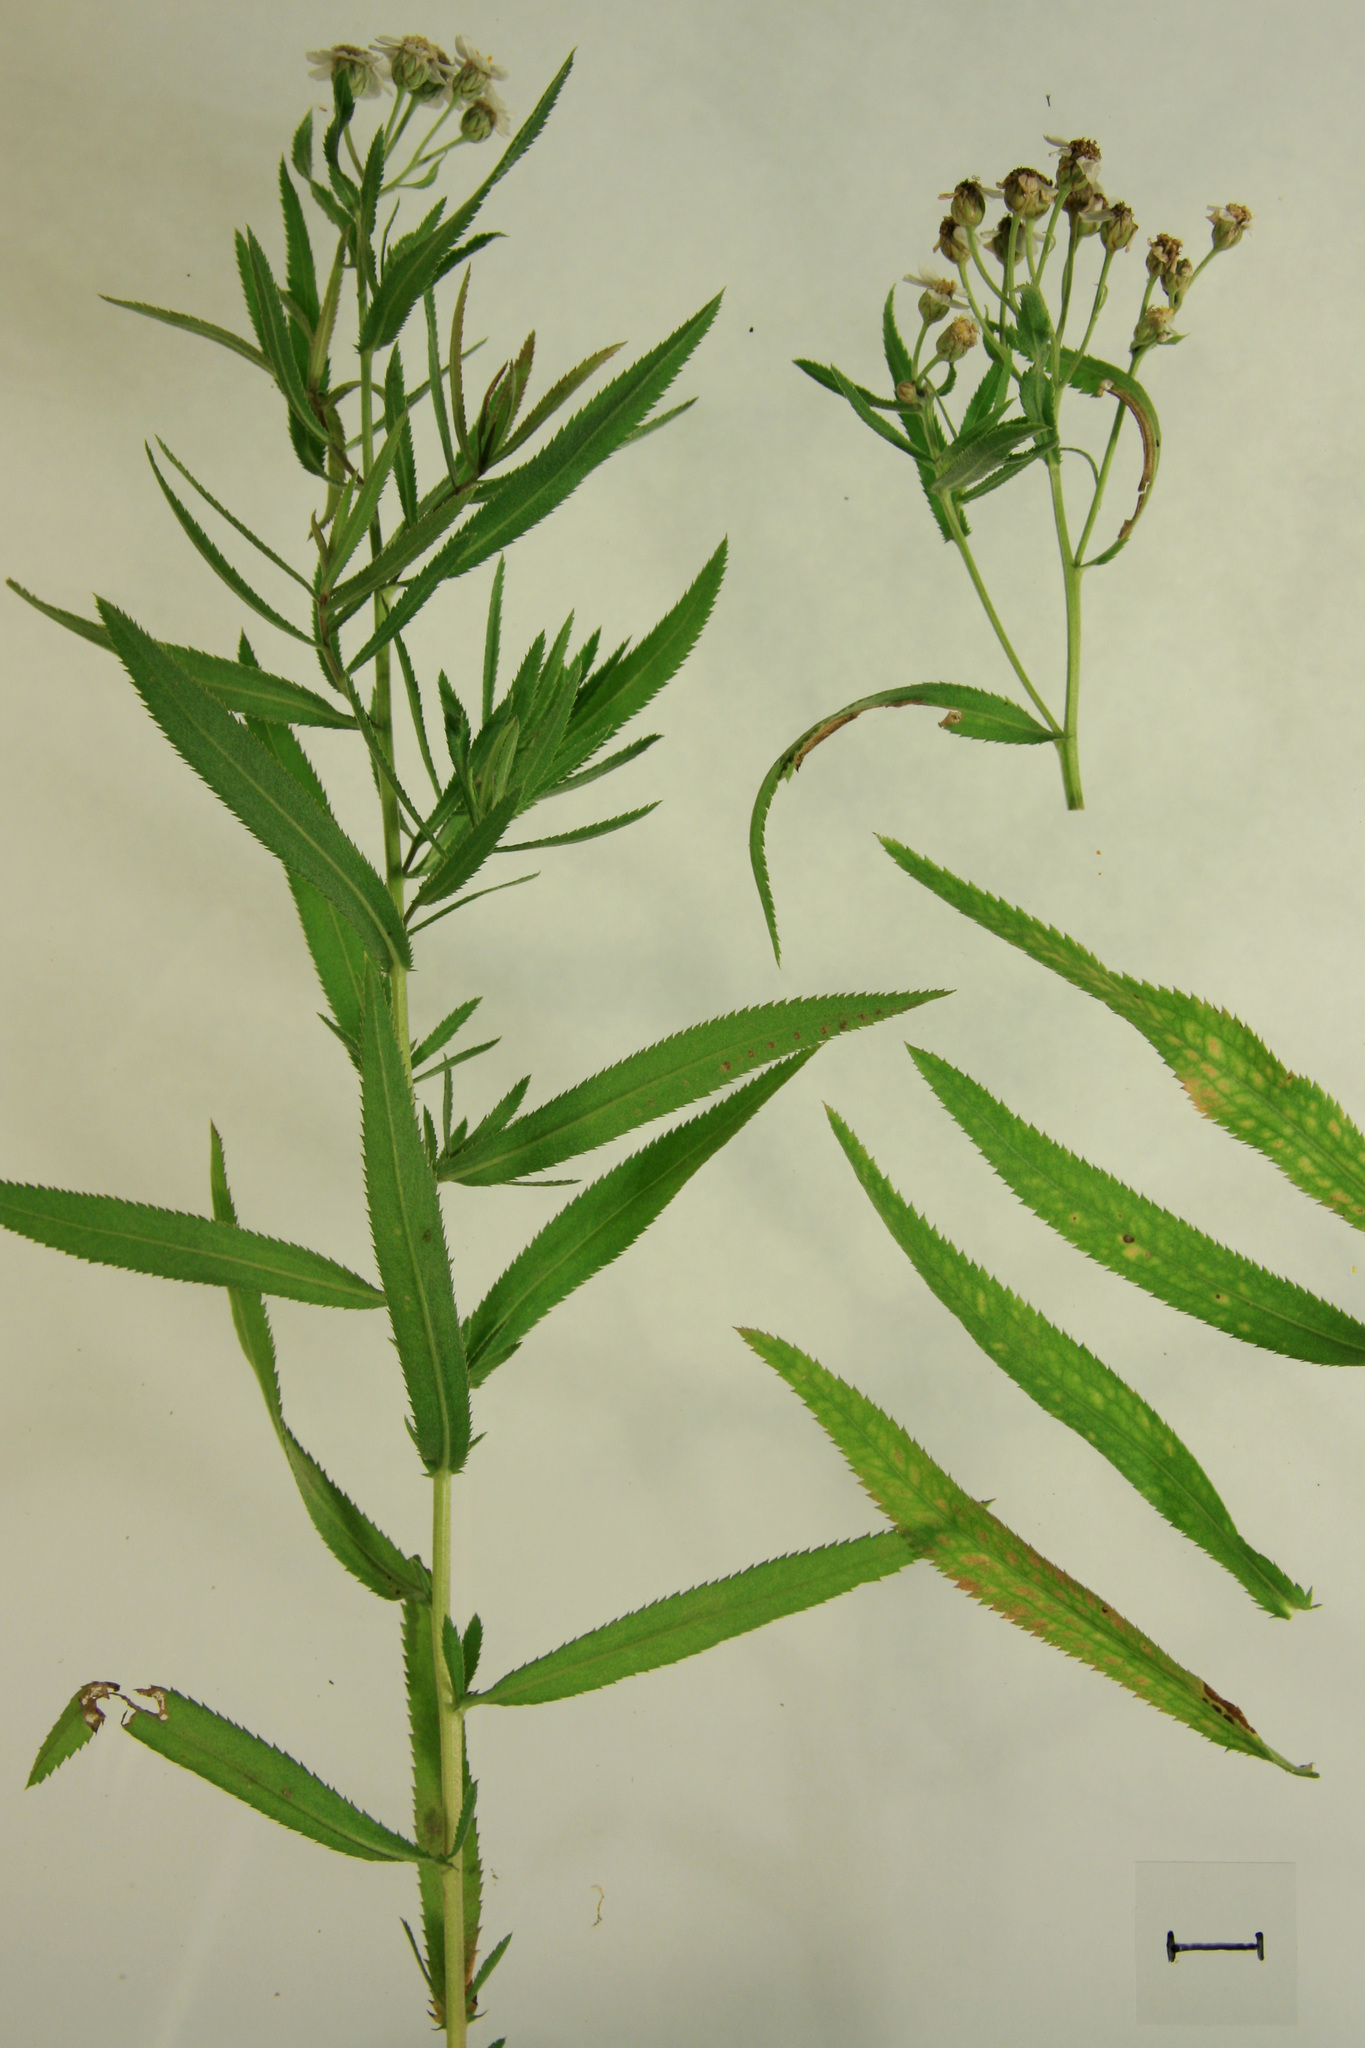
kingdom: Plantae
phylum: Tracheophyta
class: Magnoliopsida
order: Asterales
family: Asteraceae
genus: Achillea
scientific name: Achillea salicifolia
